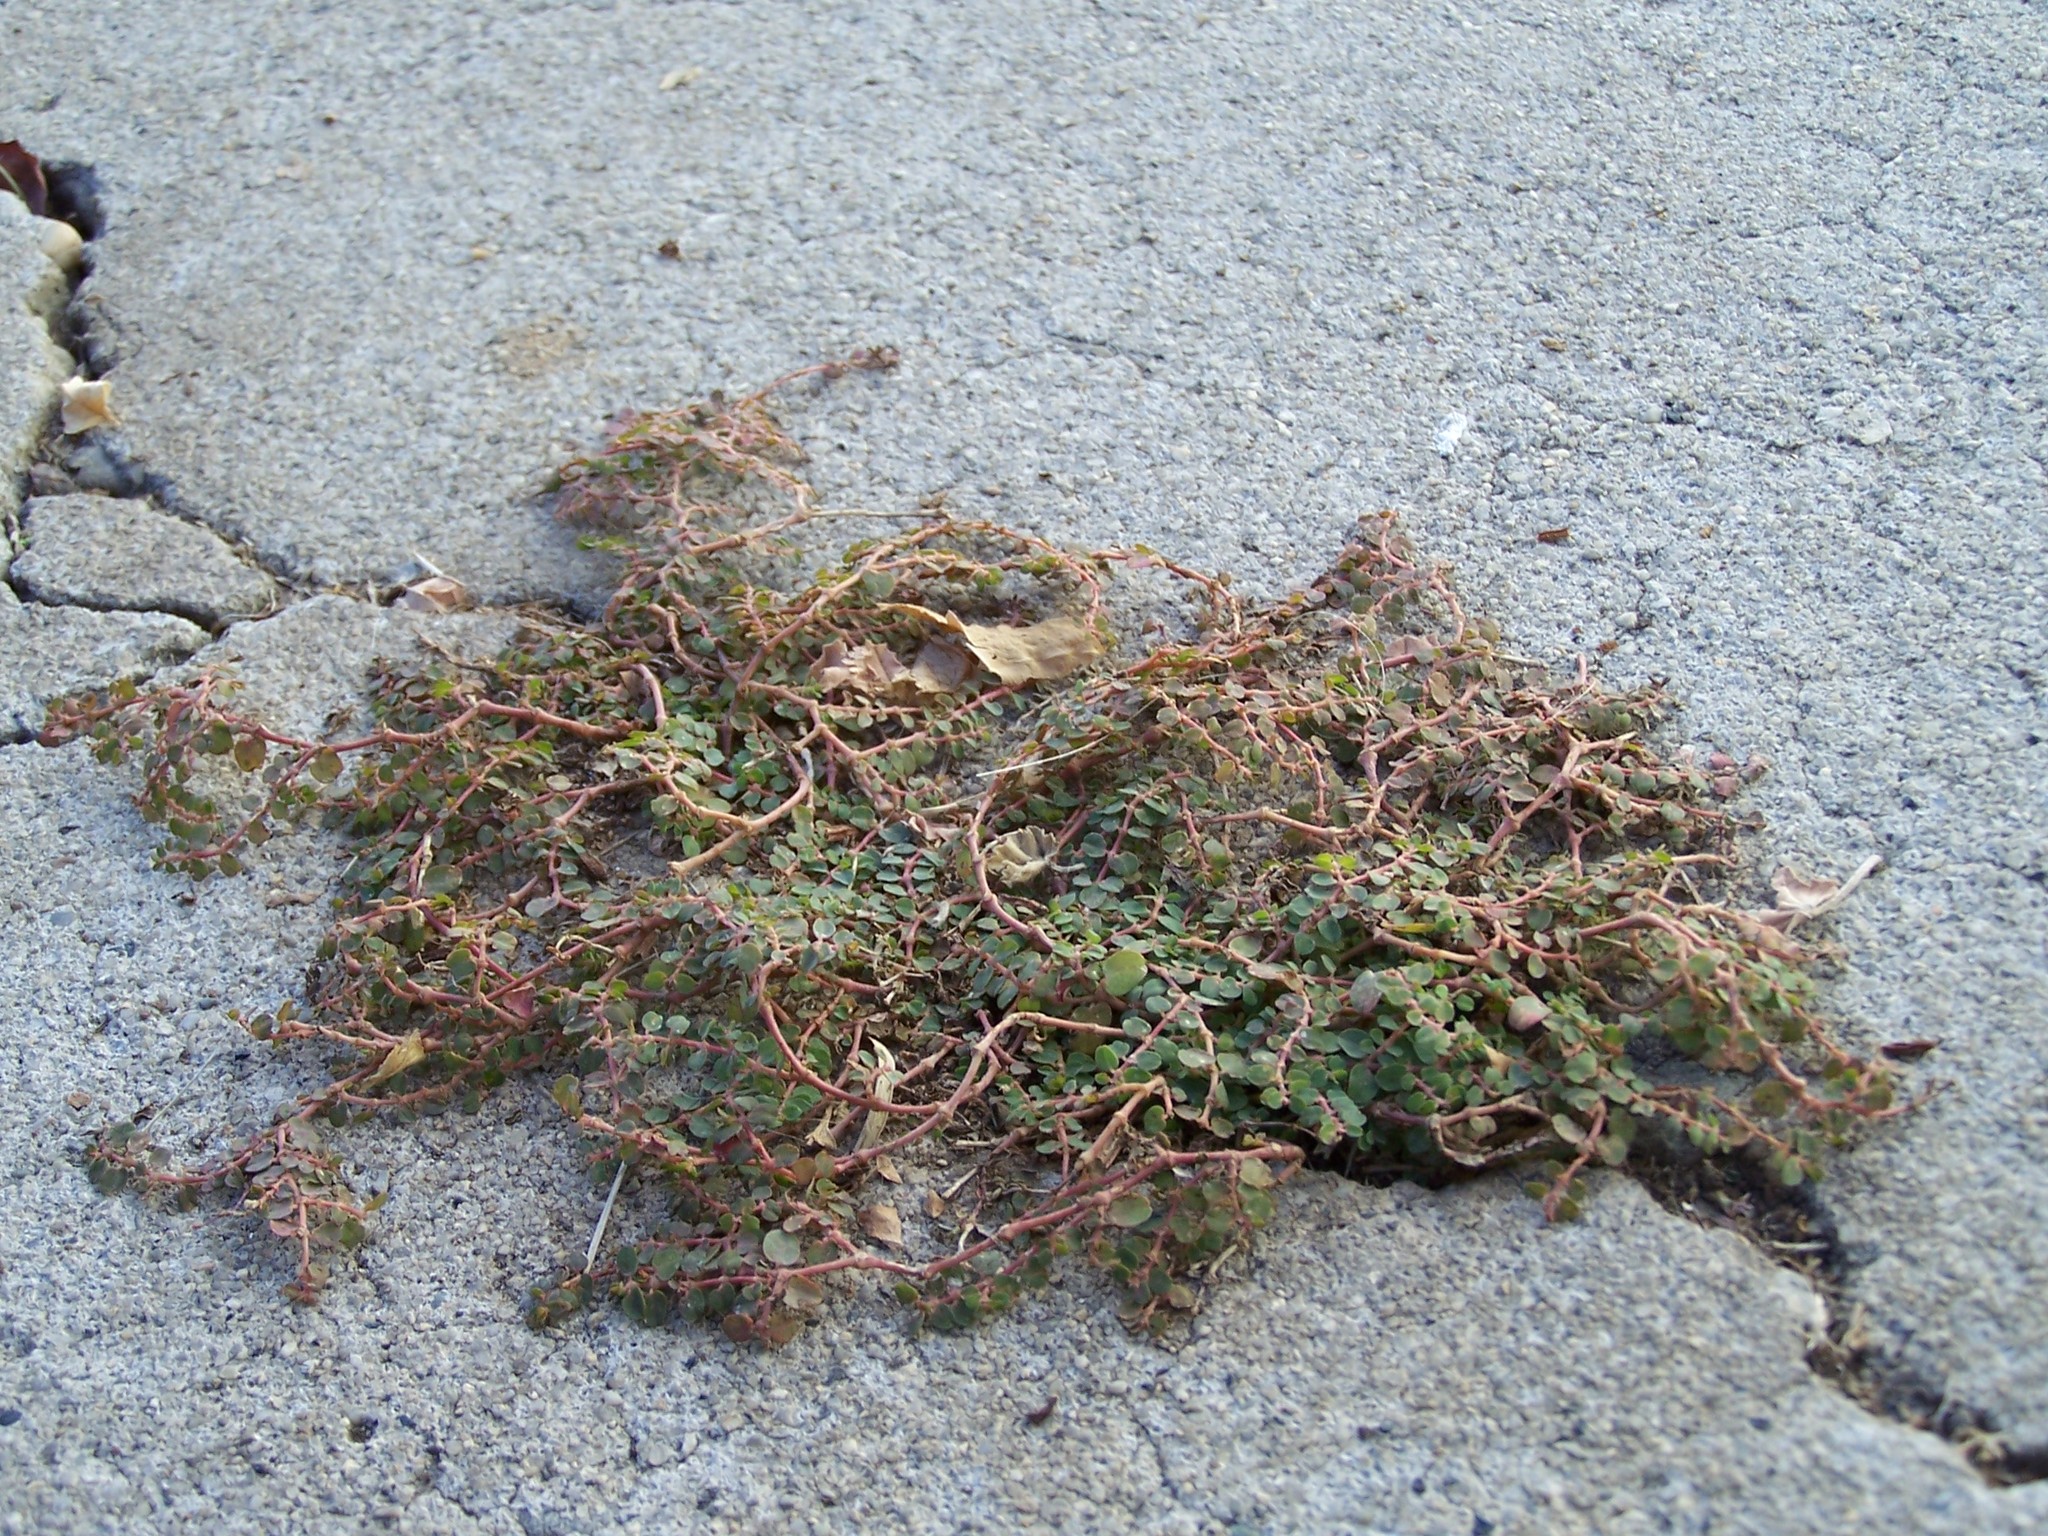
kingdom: Plantae
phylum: Tracheophyta
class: Magnoliopsida
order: Malpighiales
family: Euphorbiaceae
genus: Euphorbia
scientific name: Euphorbia serpens
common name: Matted sandmat
